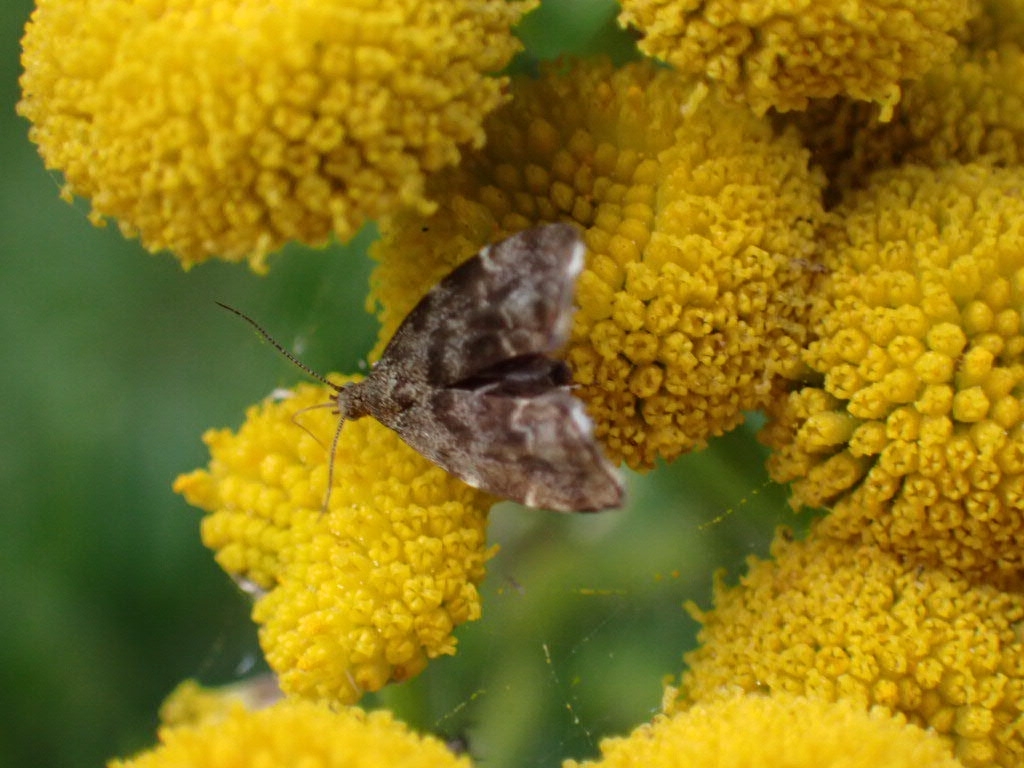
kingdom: Animalia
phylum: Arthropoda
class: Insecta
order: Lepidoptera
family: Choreutidae
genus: Anthophila
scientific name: Anthophila fabriciana
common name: Nettle-tap
